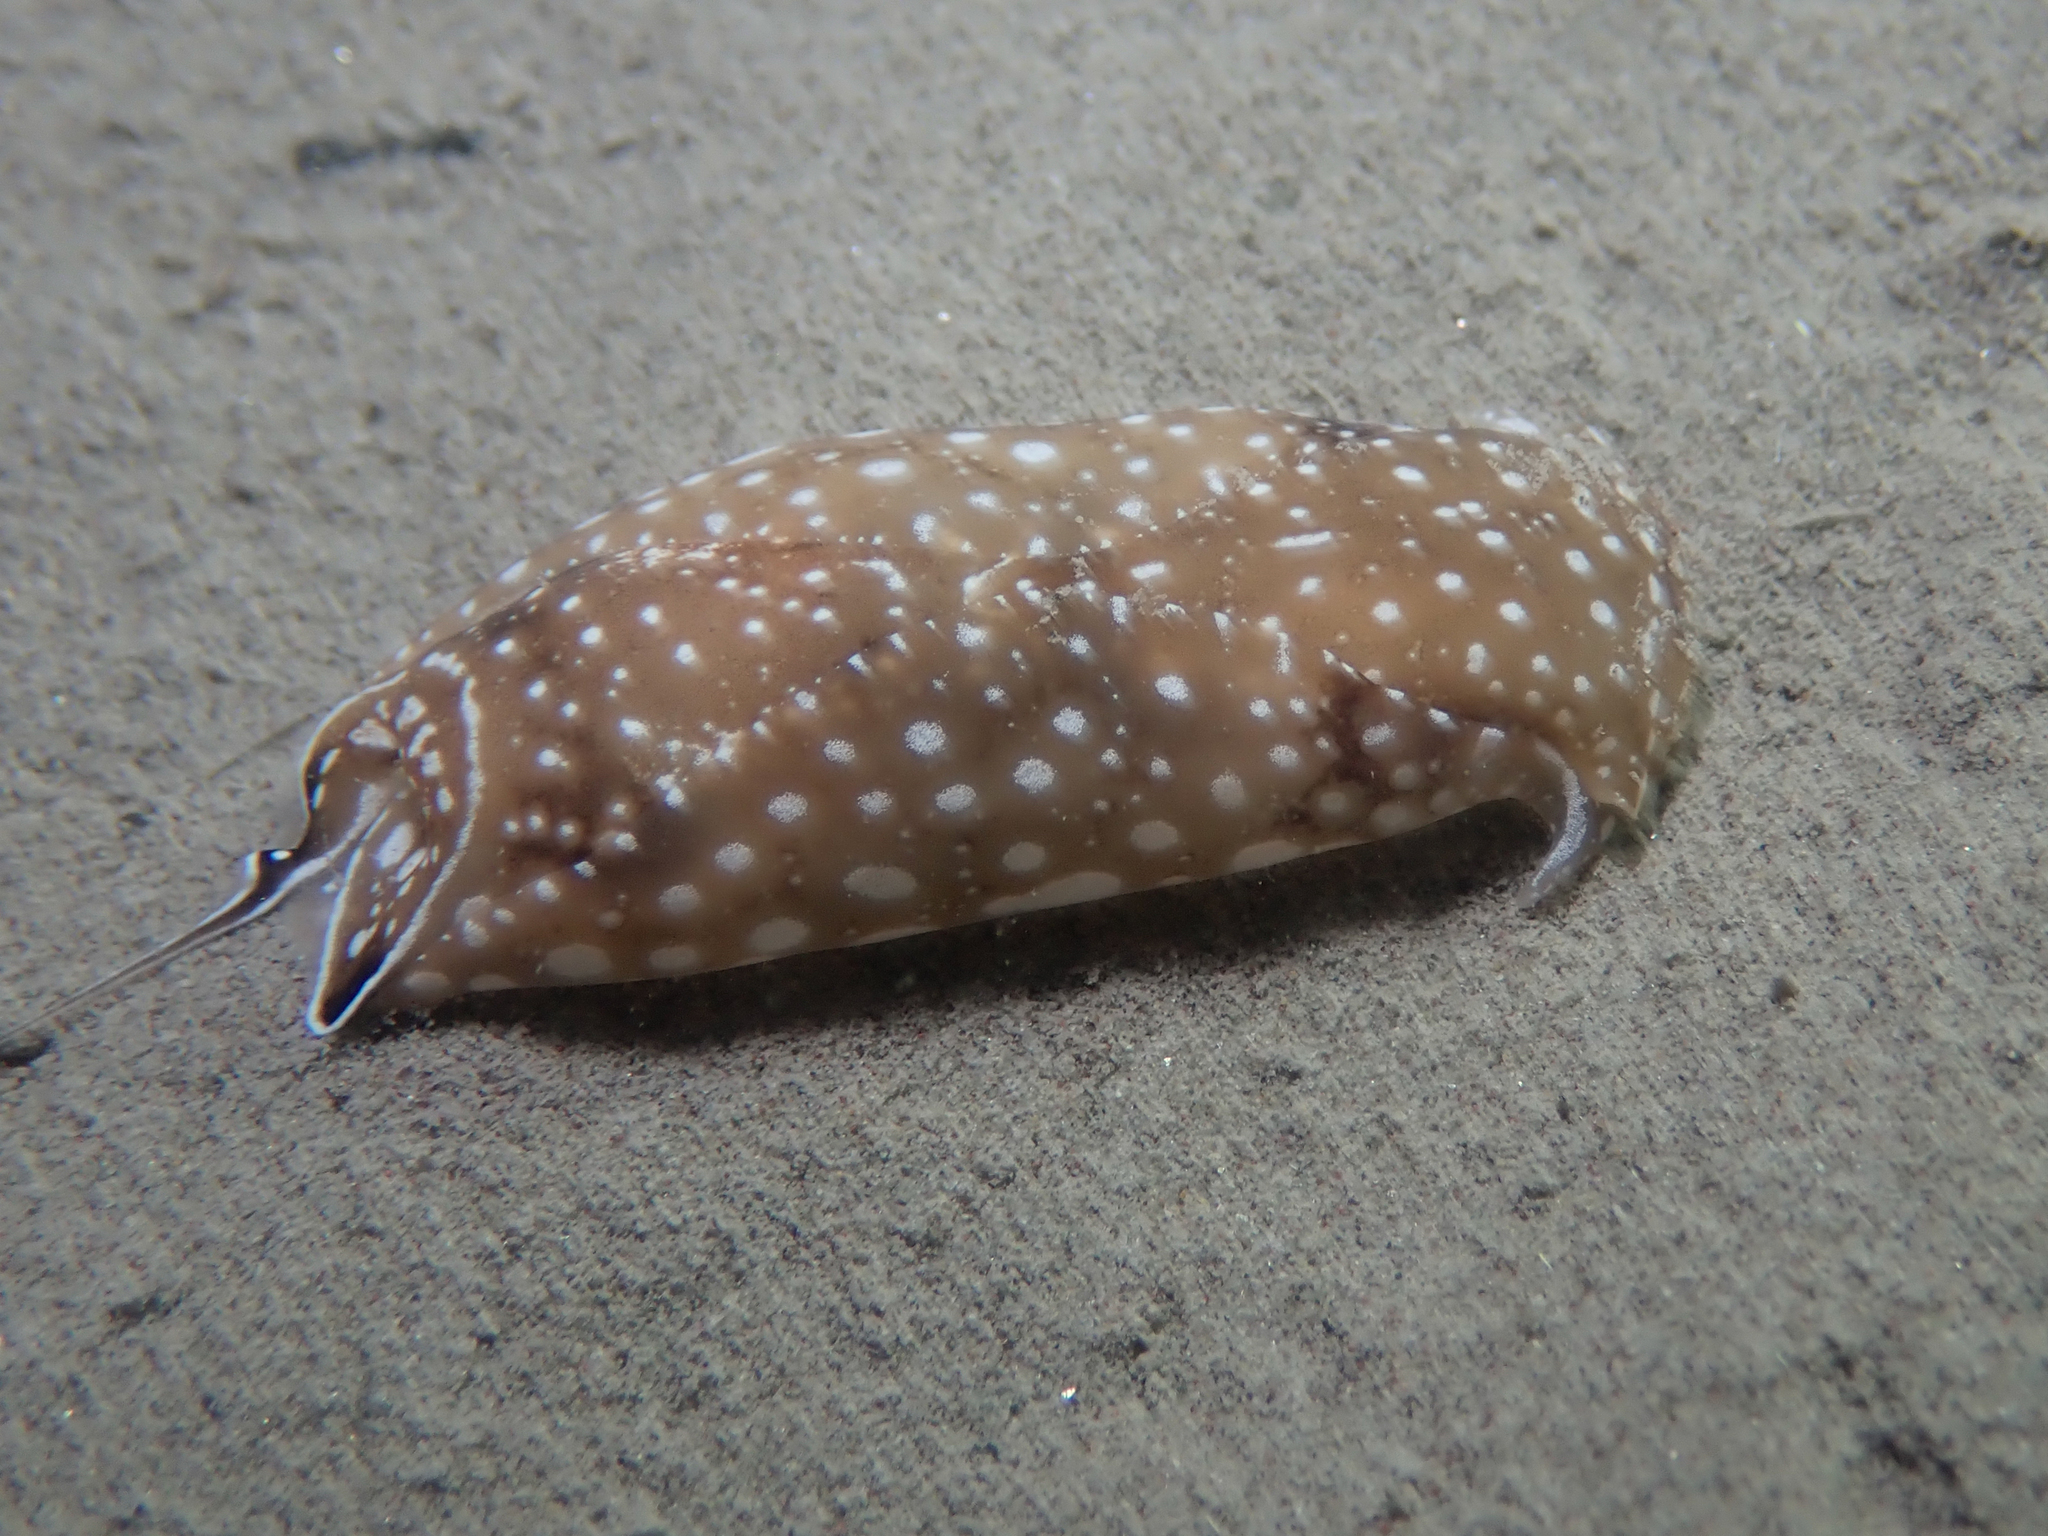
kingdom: Animalia
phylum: Mollusca
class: Gastropoda
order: Cephalaspidea
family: Aglajidae
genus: Aglaja
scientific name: Aglaja tricolorata
